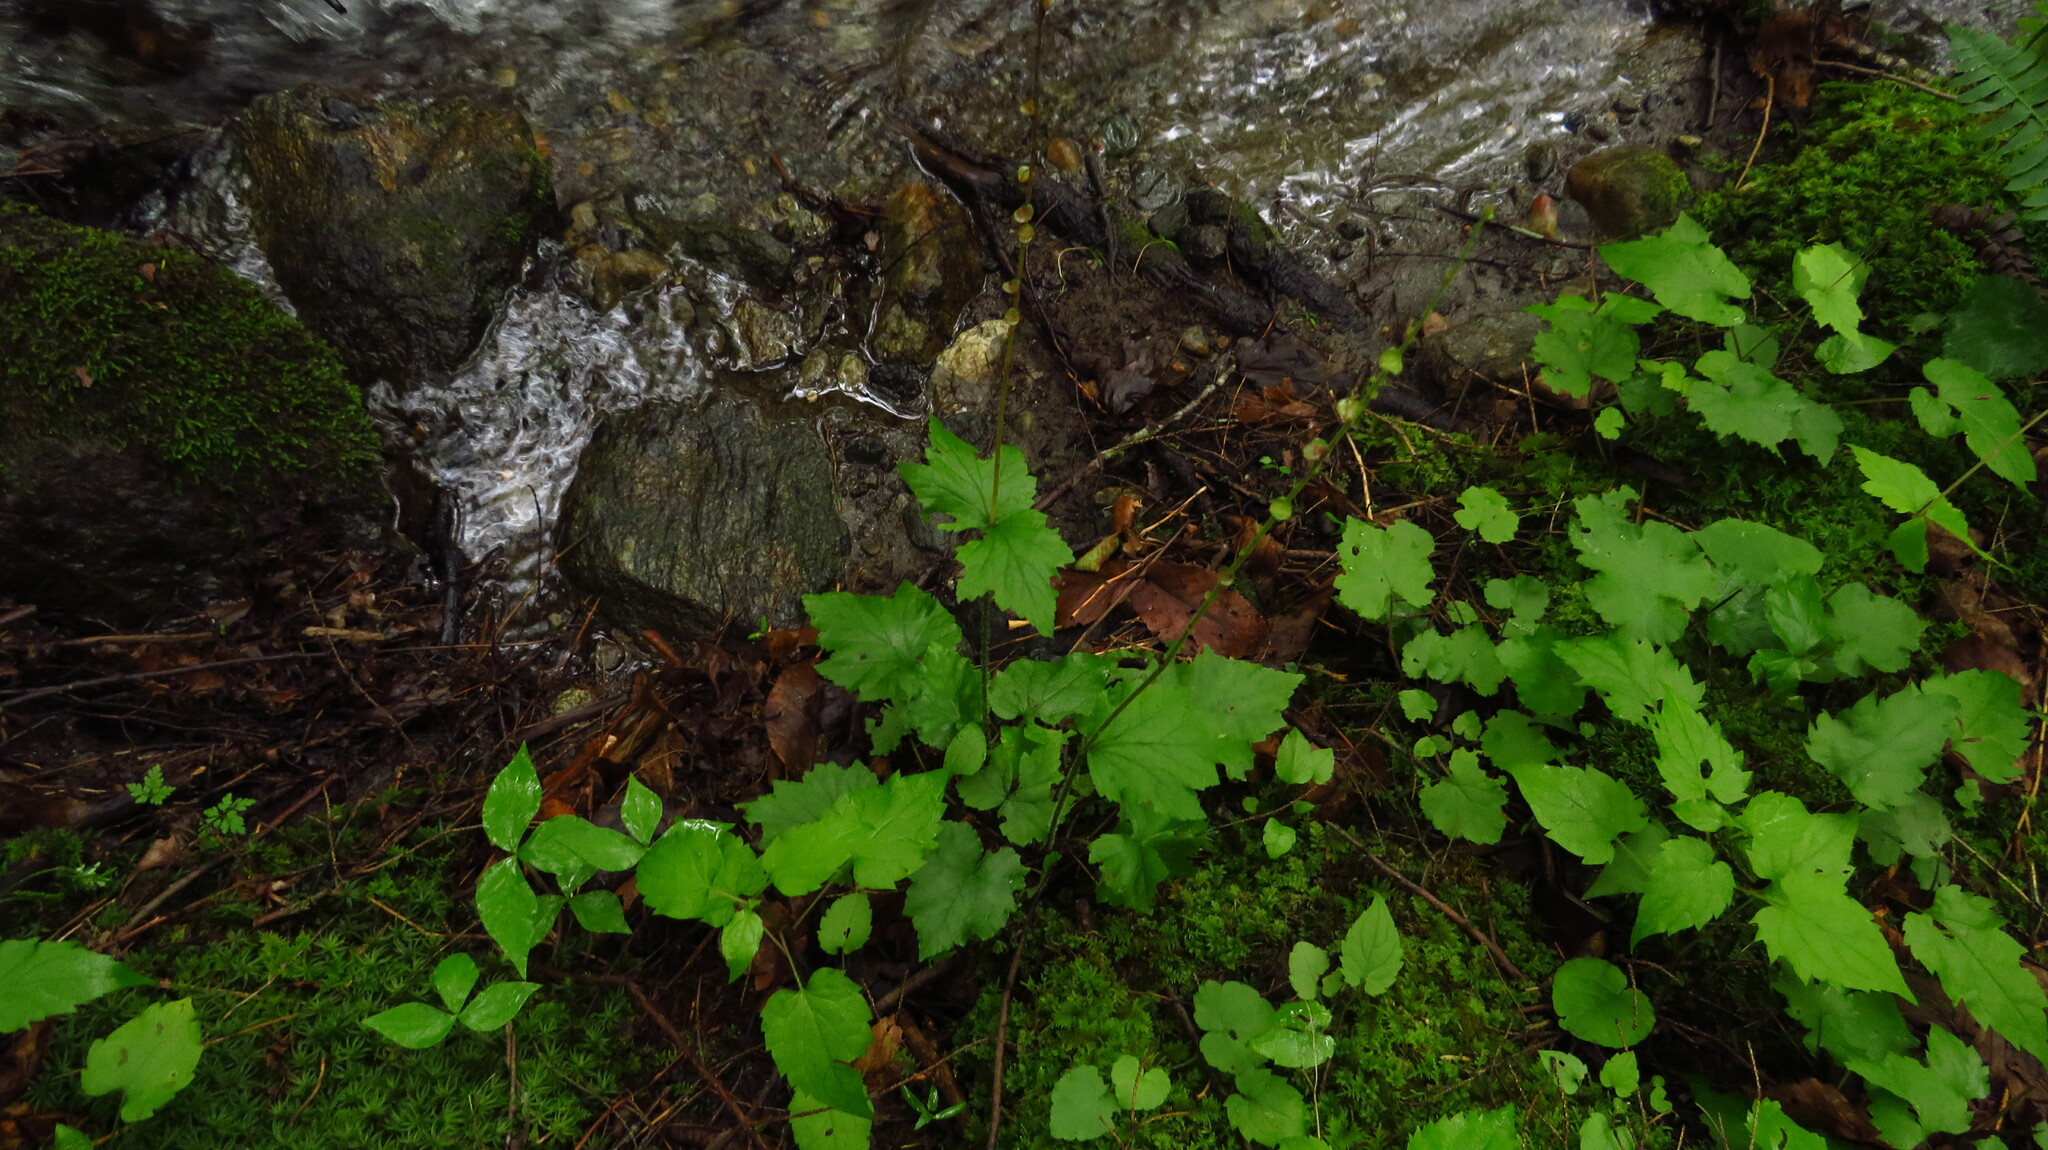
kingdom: Plantae
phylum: Tracheophyta
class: Magnoliopsida
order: Saxifragales
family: Saxifragaceae
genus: Tiarella
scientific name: Tiarella stolonifera
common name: Stoloniferous foamflower
